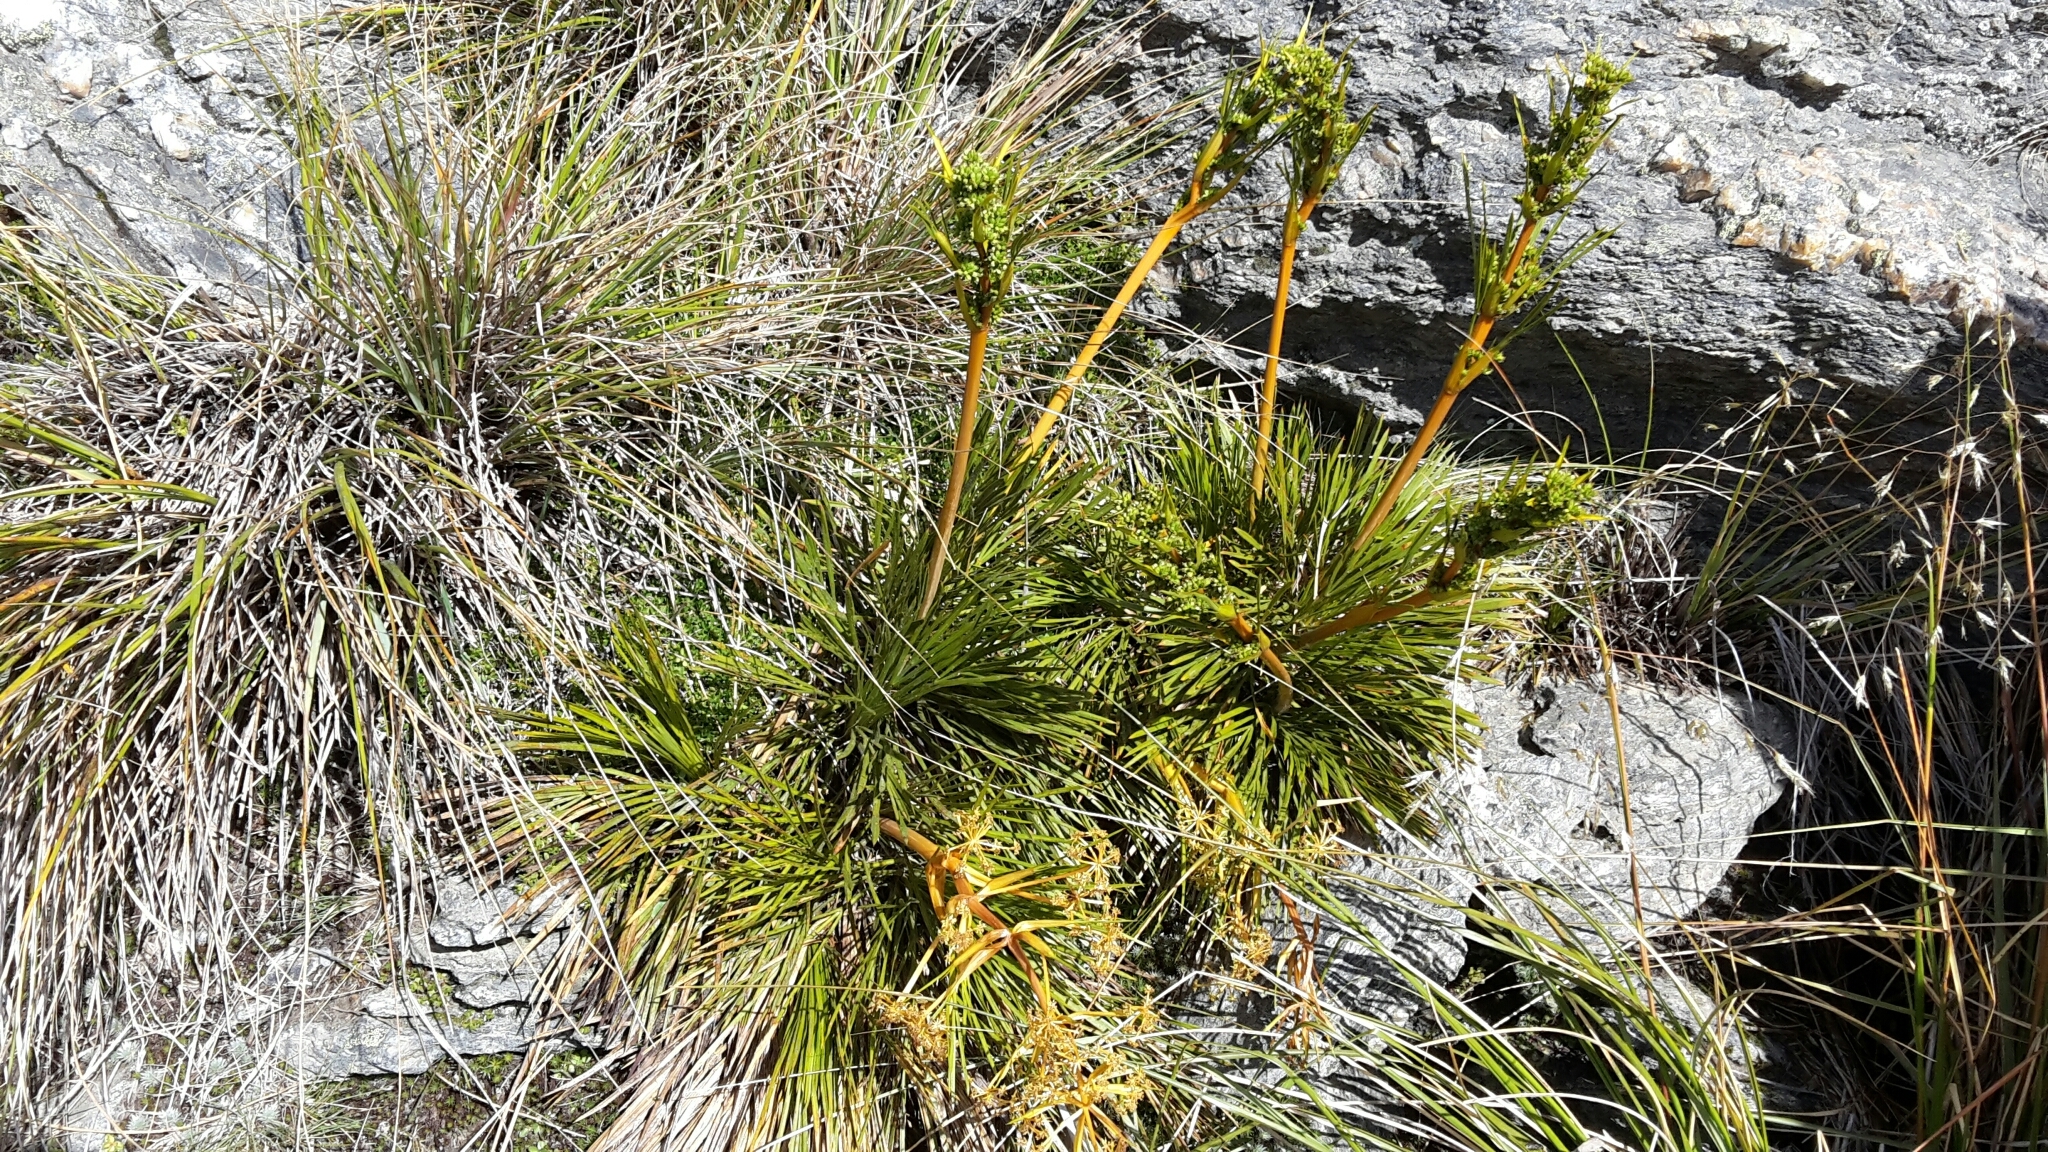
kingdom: Plantae
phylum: Tracheophyta
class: Magnoliopsida
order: Apiales
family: Apiaceae
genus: Aciphylla
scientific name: Aciphylla montana
